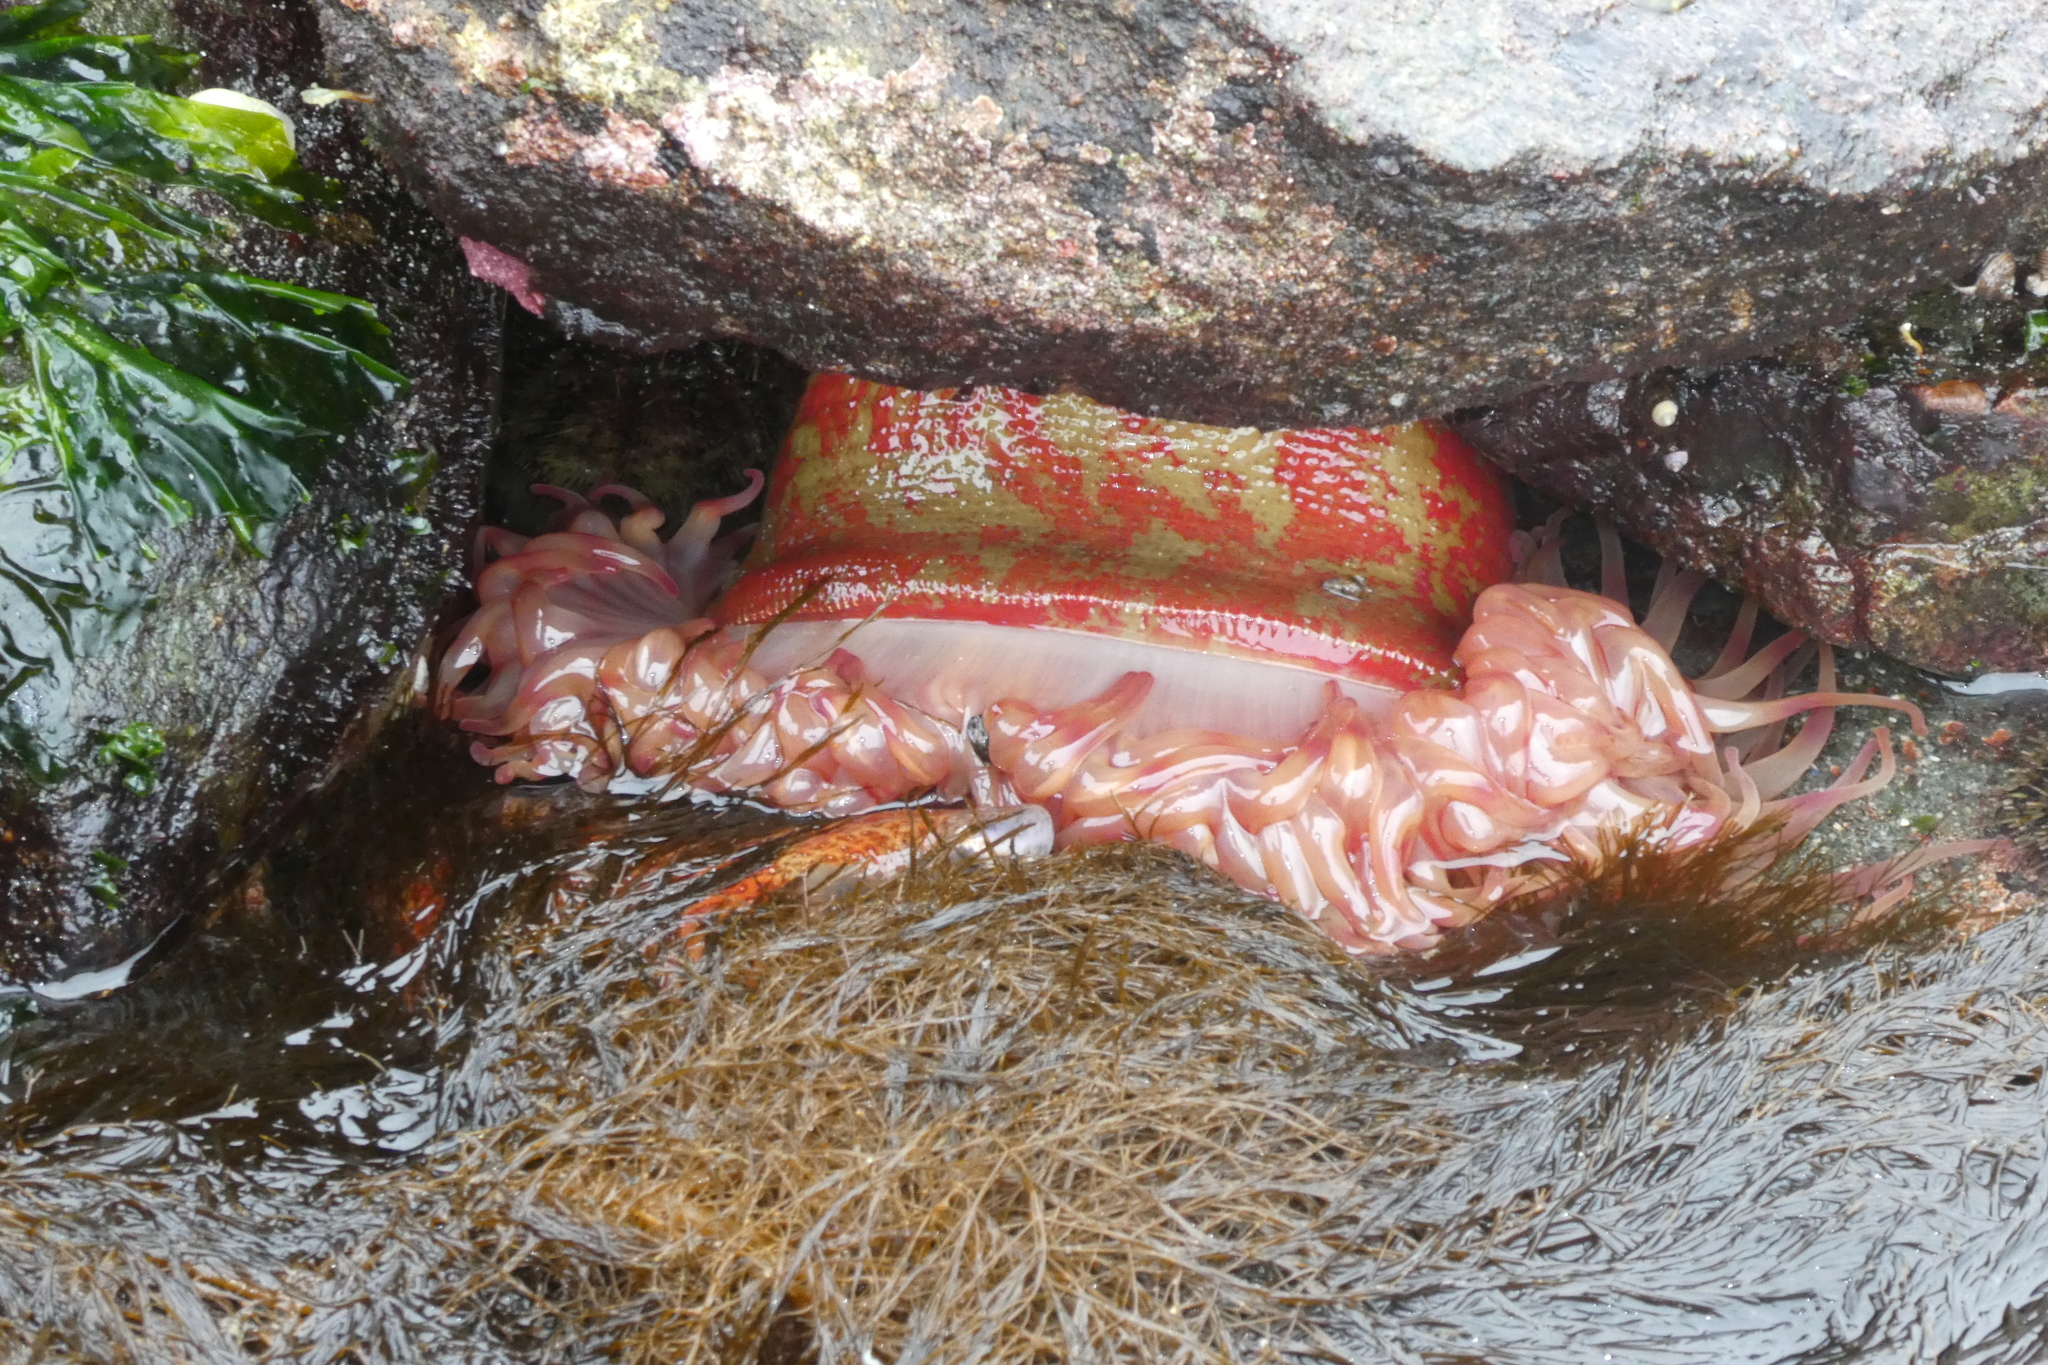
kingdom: Animalia
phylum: Cnidaria
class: Anthozoa
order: Actiniaria
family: Actiniidae
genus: Urticina
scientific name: Urticina grebelnyi
